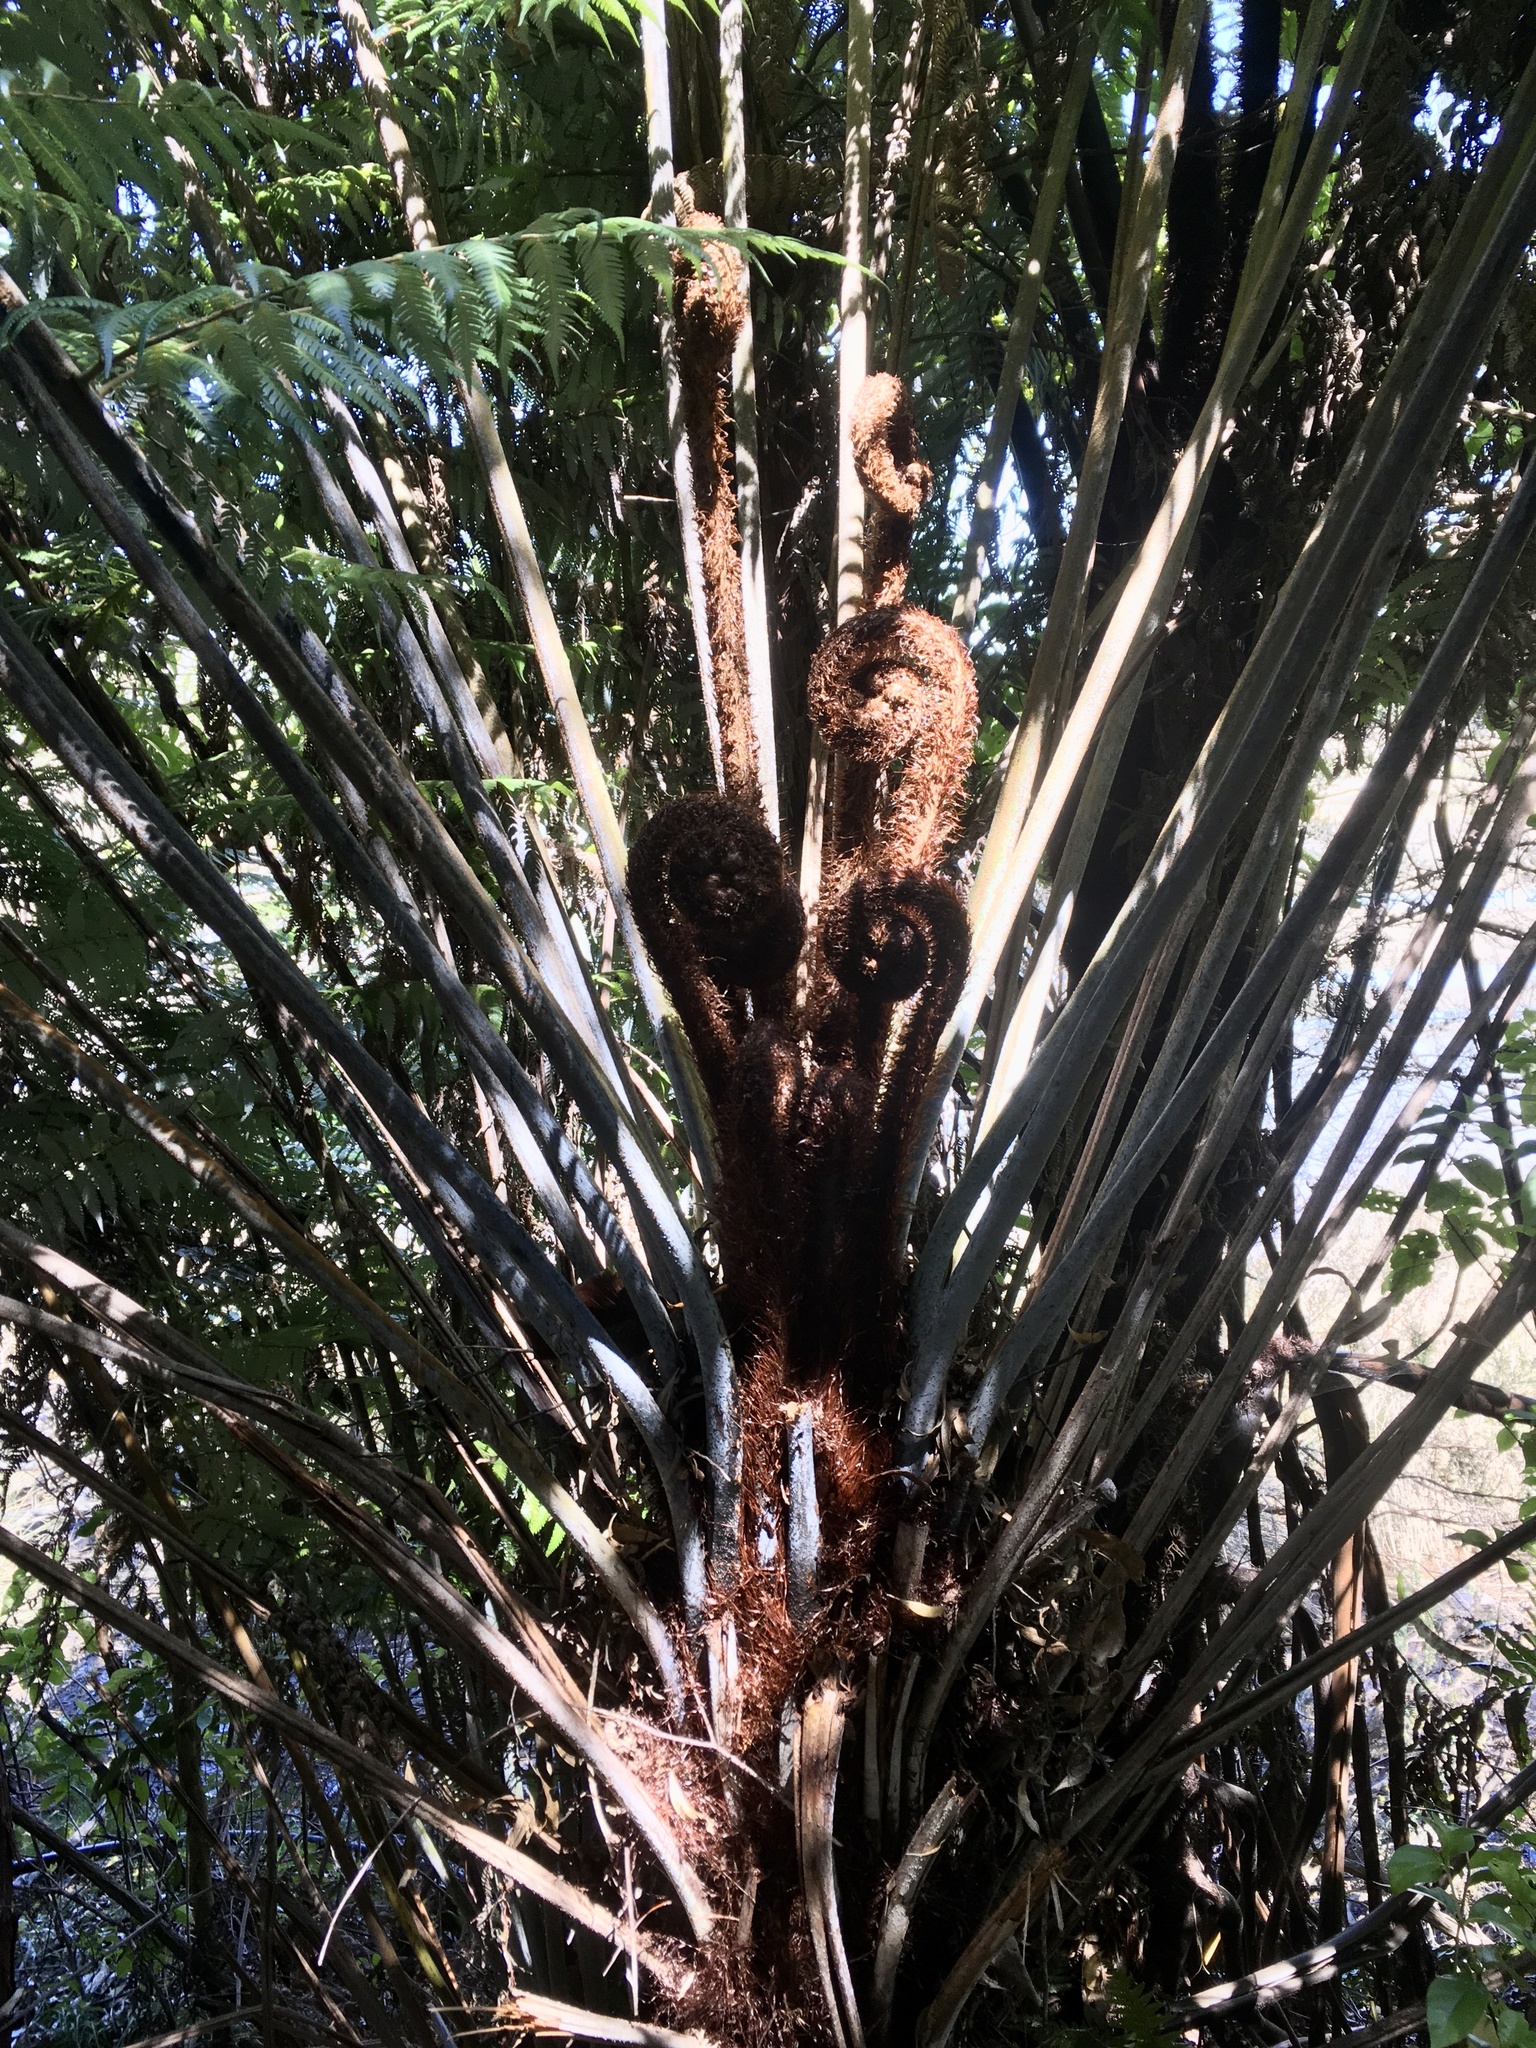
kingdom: Plantae
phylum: Tracheophyta
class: Polypodiopsida
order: Cyatheales
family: Cyatheaceae
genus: Alsophila
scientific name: Alsophila dealbata
